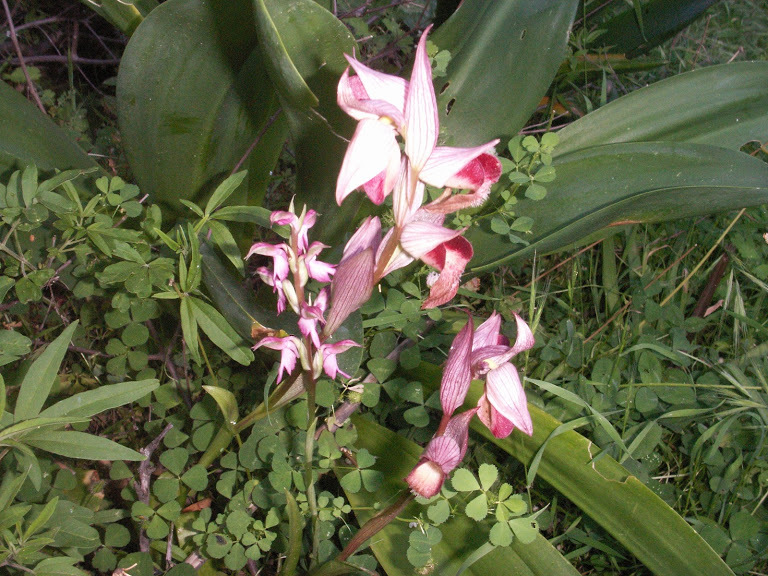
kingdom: Plantae
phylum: Tracheophyta
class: Liliopsida
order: Asparagales
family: Orchidaceae
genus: Serapias
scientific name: Serapias lingua
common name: Tongue-orchid
